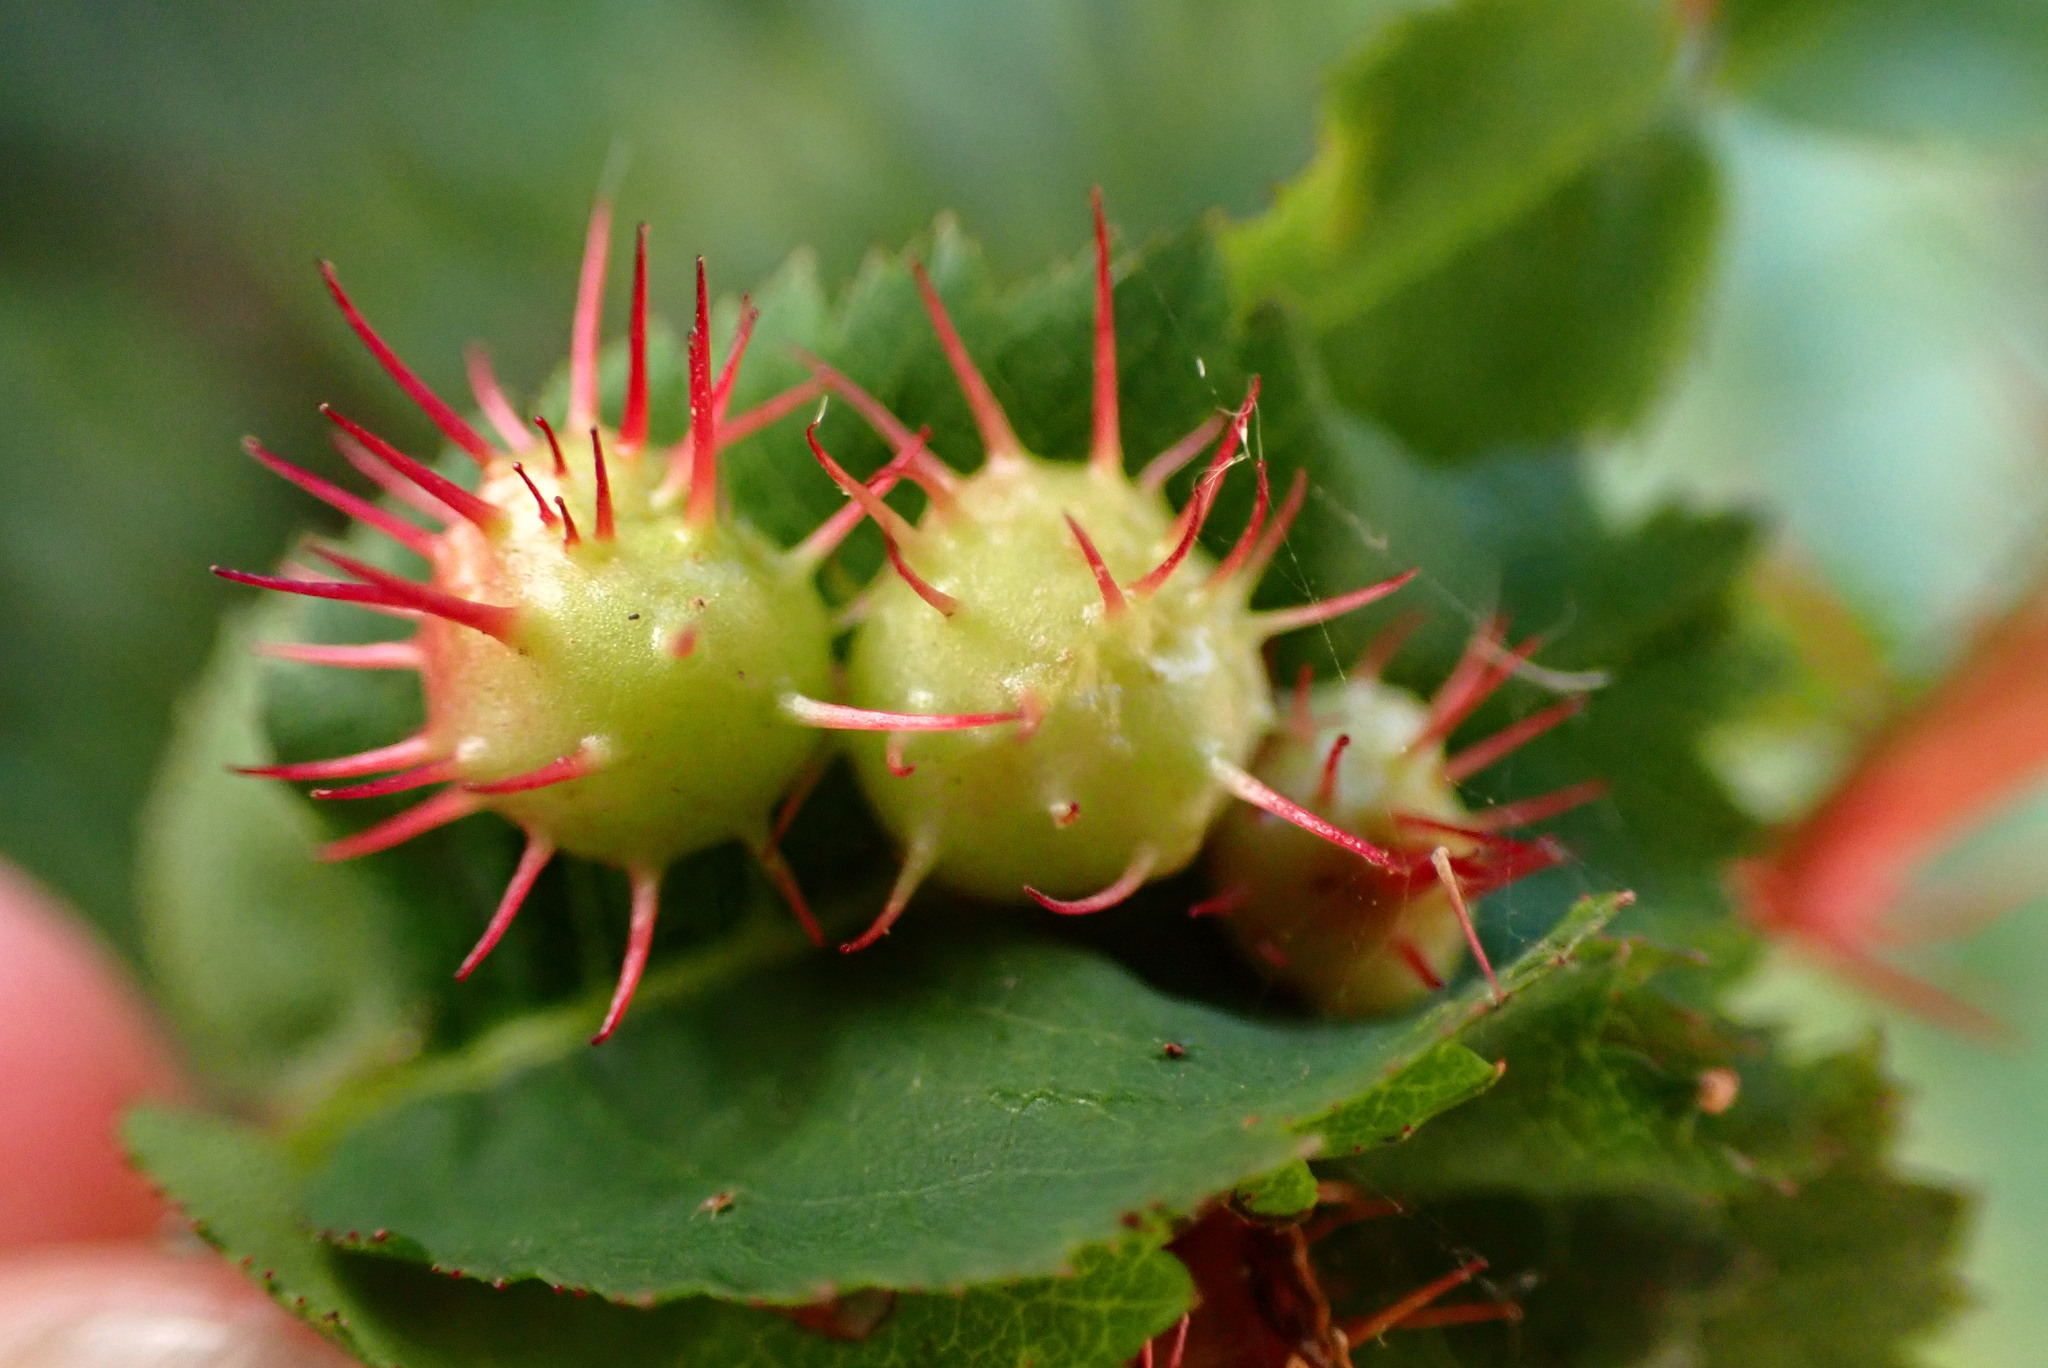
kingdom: Animalia
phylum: Arthropoda
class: Insecta
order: Hymenoptera
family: Cynipidae
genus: Diplolepis
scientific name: Diplolepis polita
